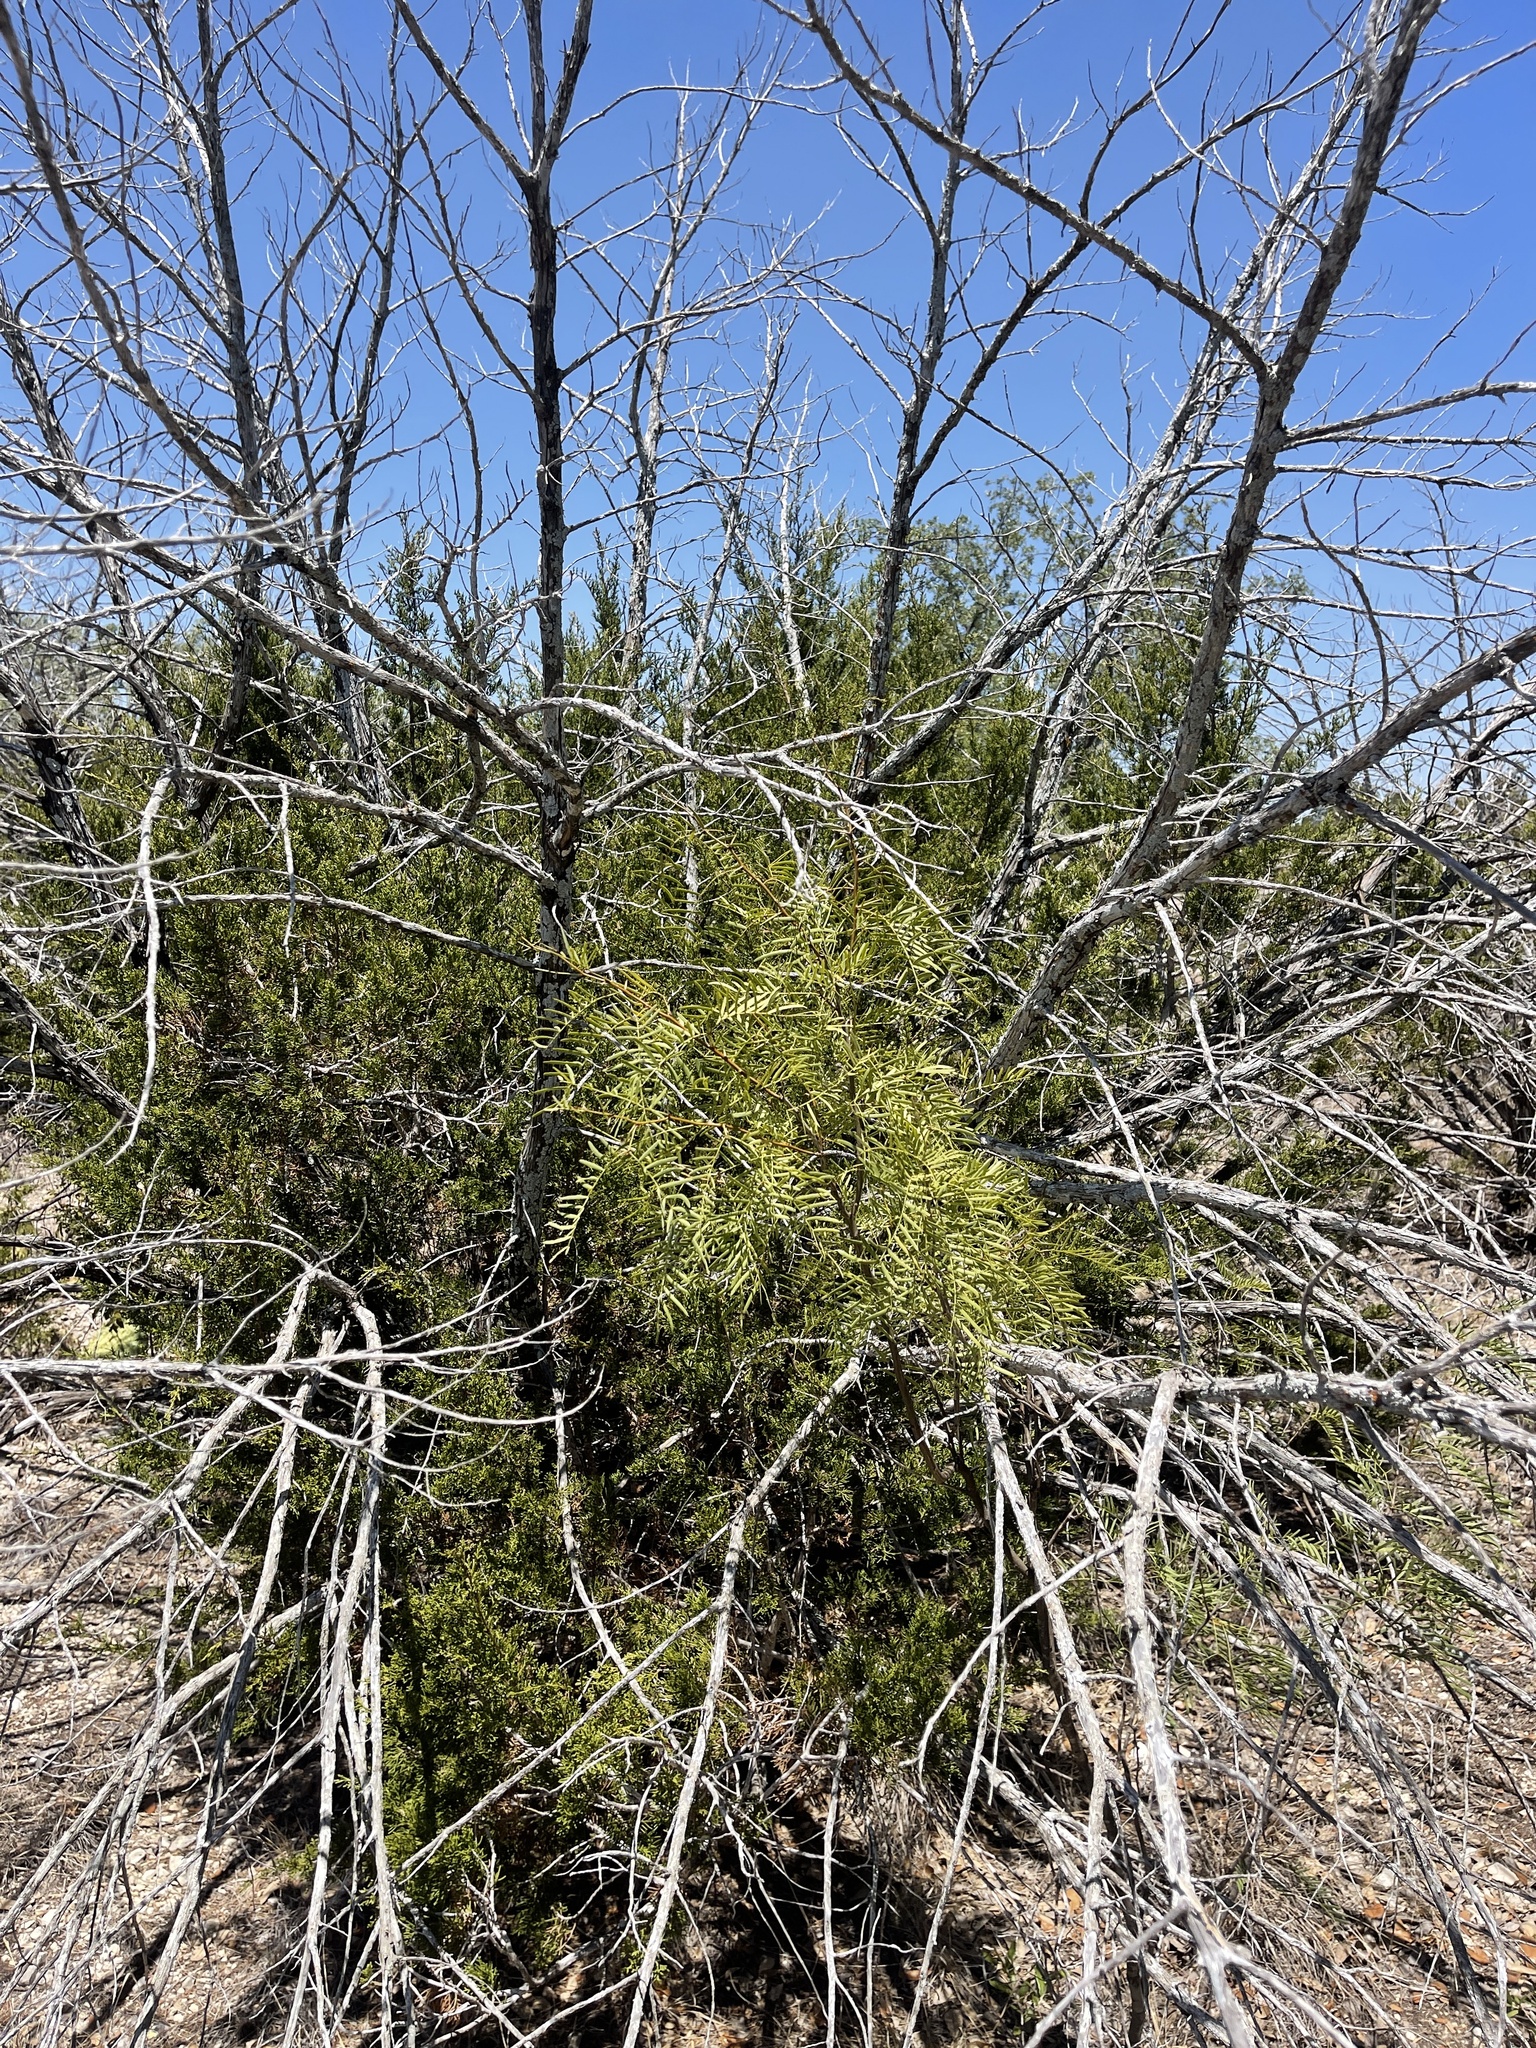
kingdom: Plantae
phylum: Tracheophyta
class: Magnoliopsida
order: Fabales
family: Fabaceae
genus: Prosopis
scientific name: Prosopis glandulosa
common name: Honey mesquite
